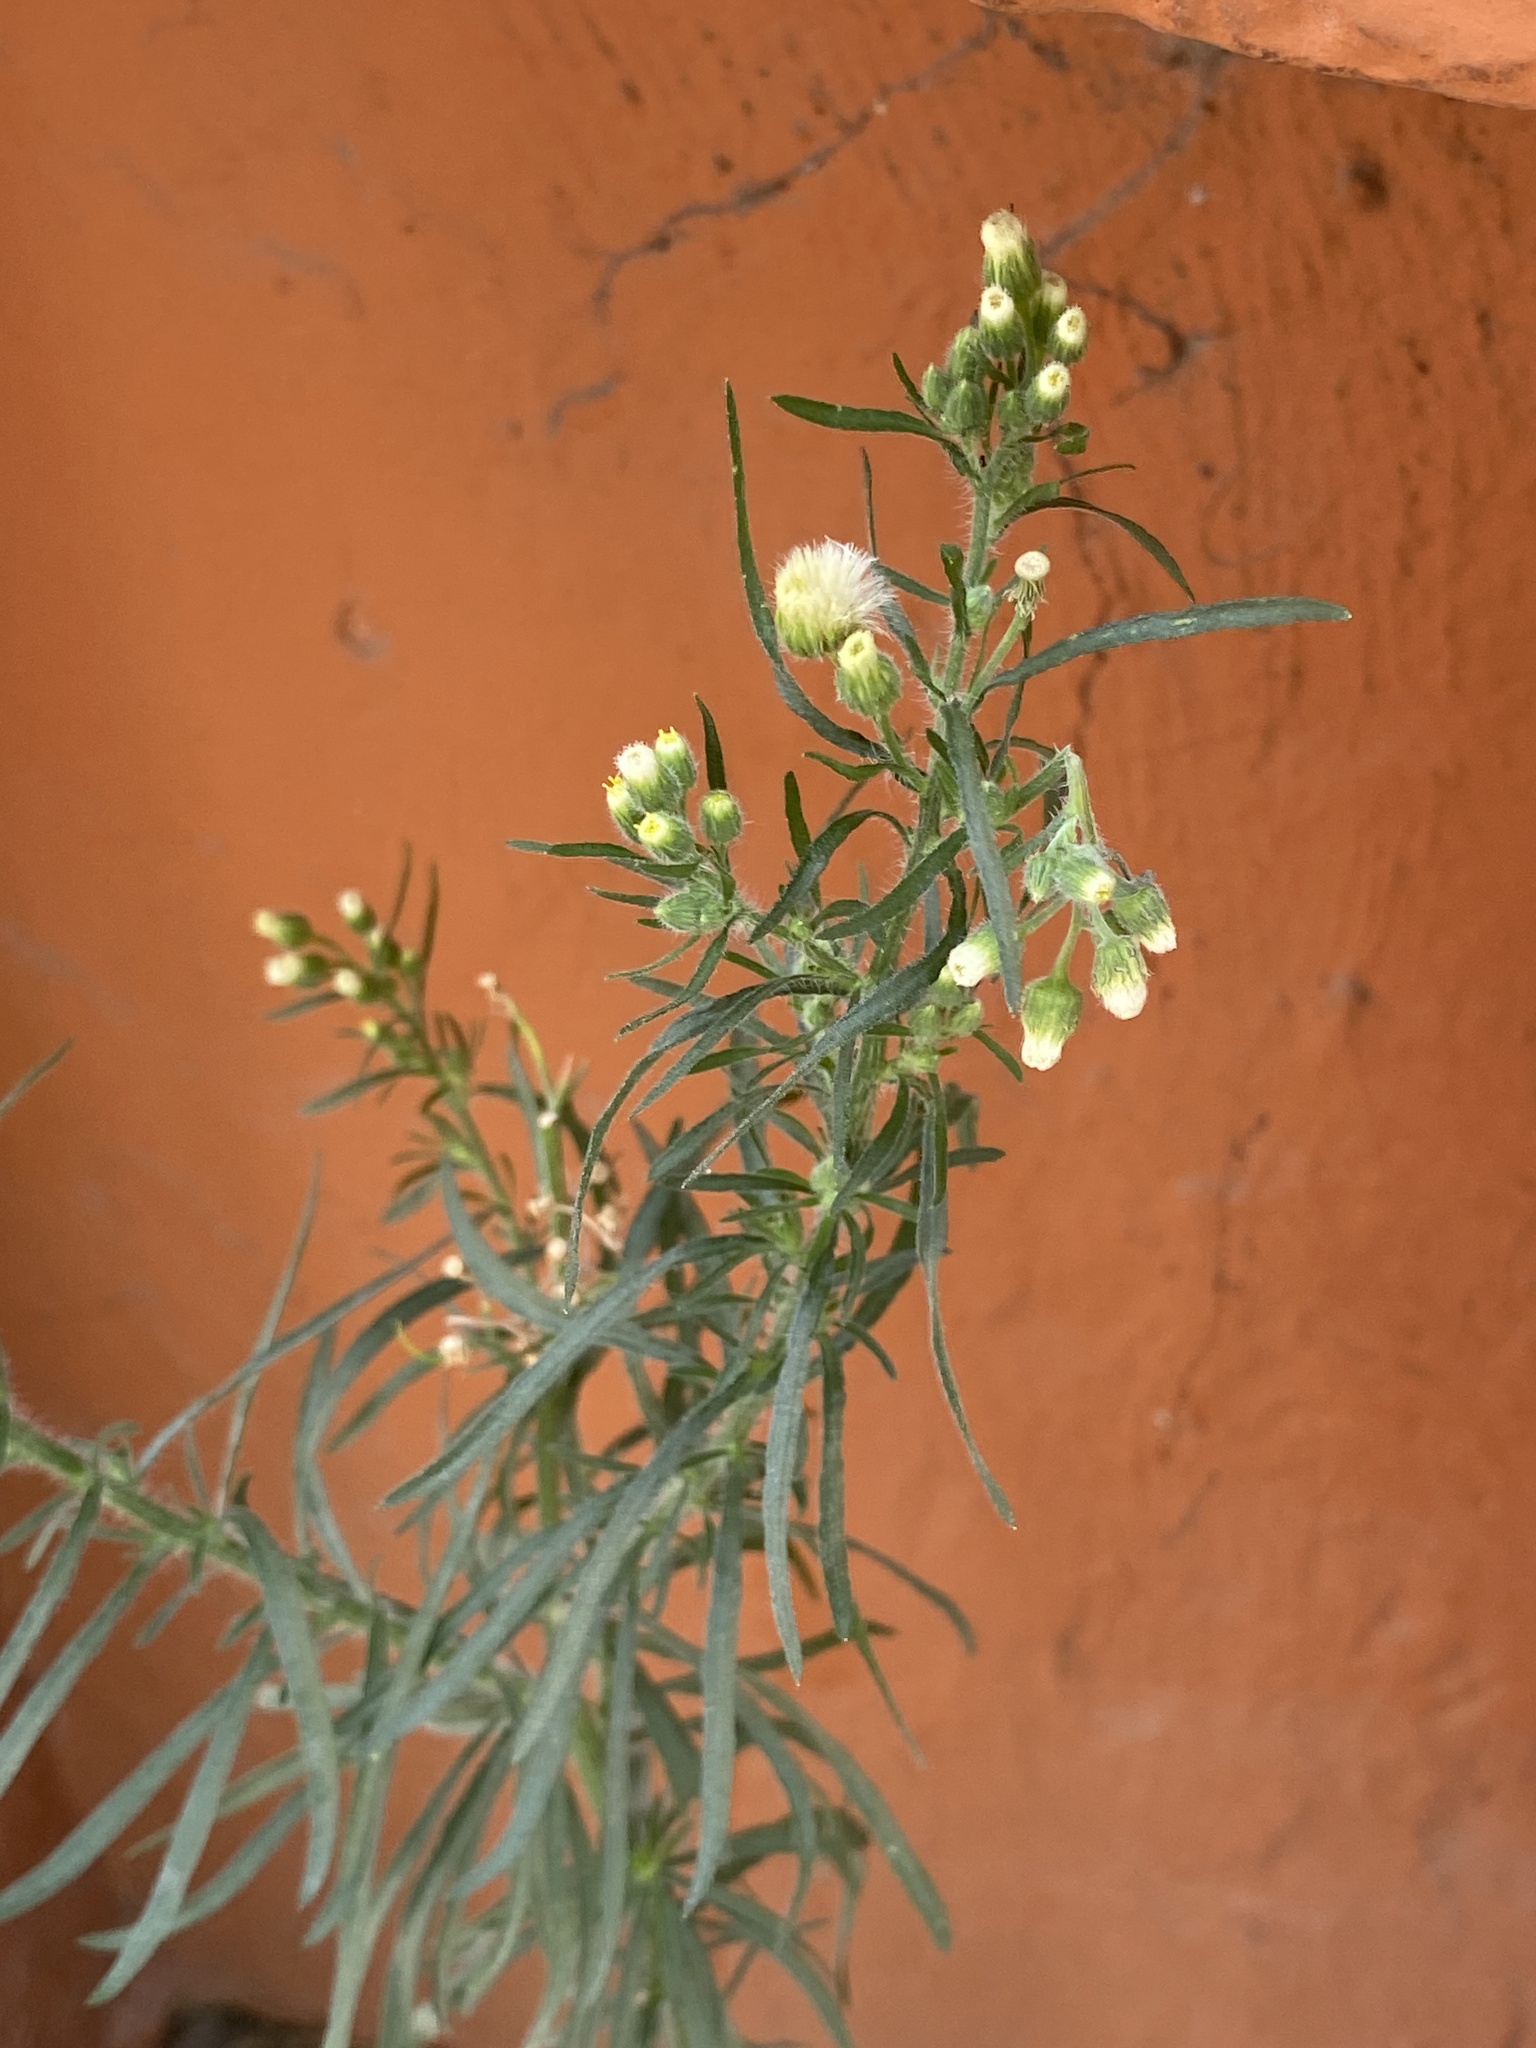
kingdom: Plantae
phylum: Tracheophyta
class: Magnoliopsida
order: Asterales
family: Asteraceae
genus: Erigeron
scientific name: Erigeron bonariensis
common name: Argentine fleabane
